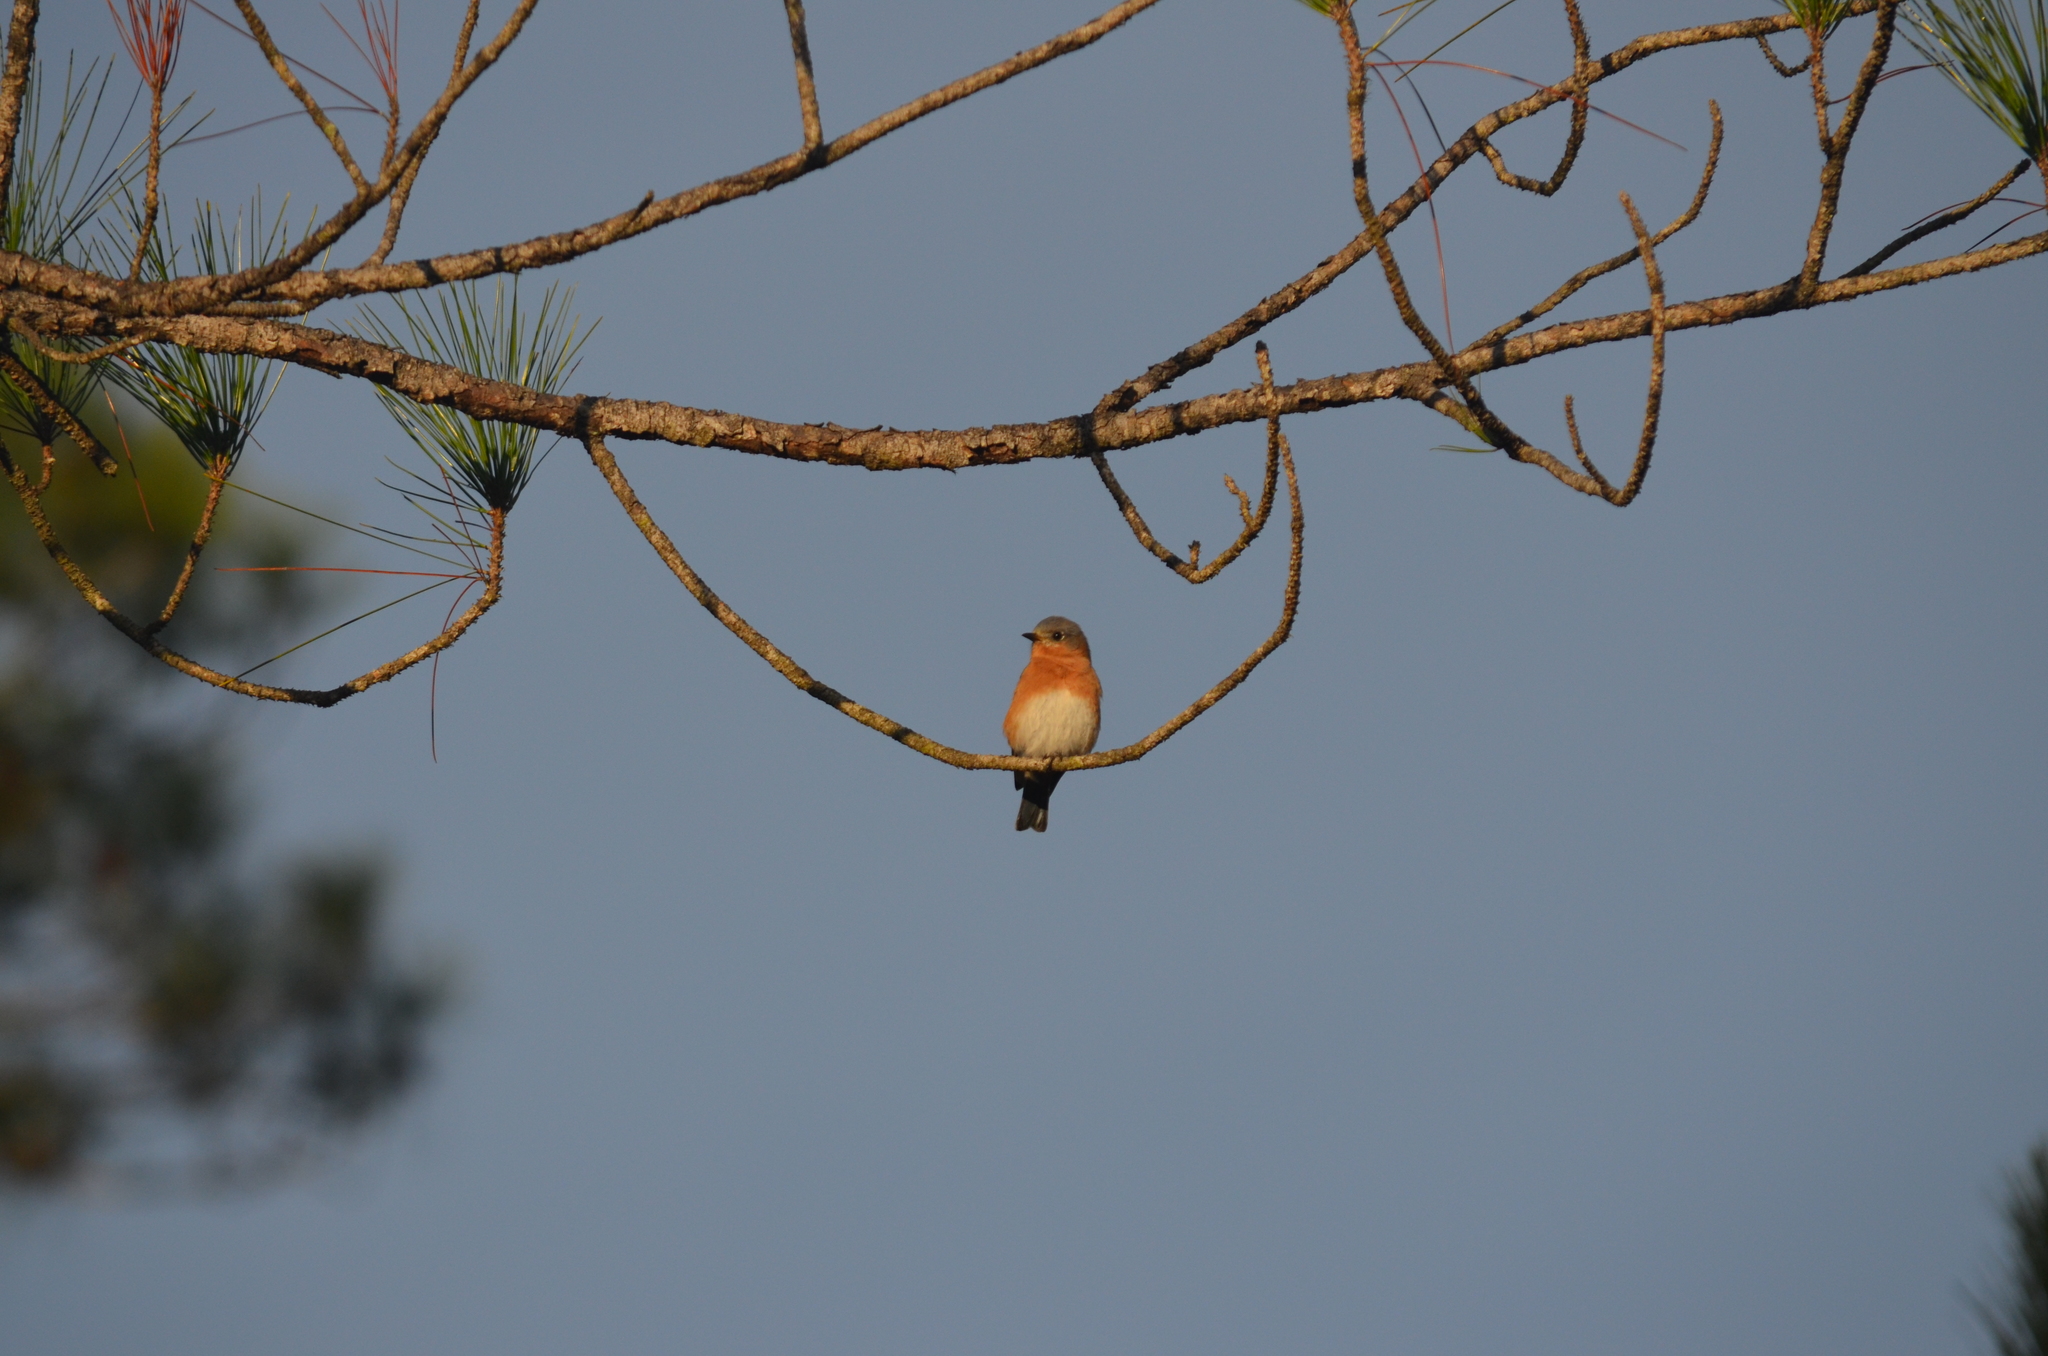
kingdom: Animalia
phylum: Chordata
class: Aves
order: Passeriformes
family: Turdidae
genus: Sialia
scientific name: Sialia sialis
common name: Eastern bluebird
